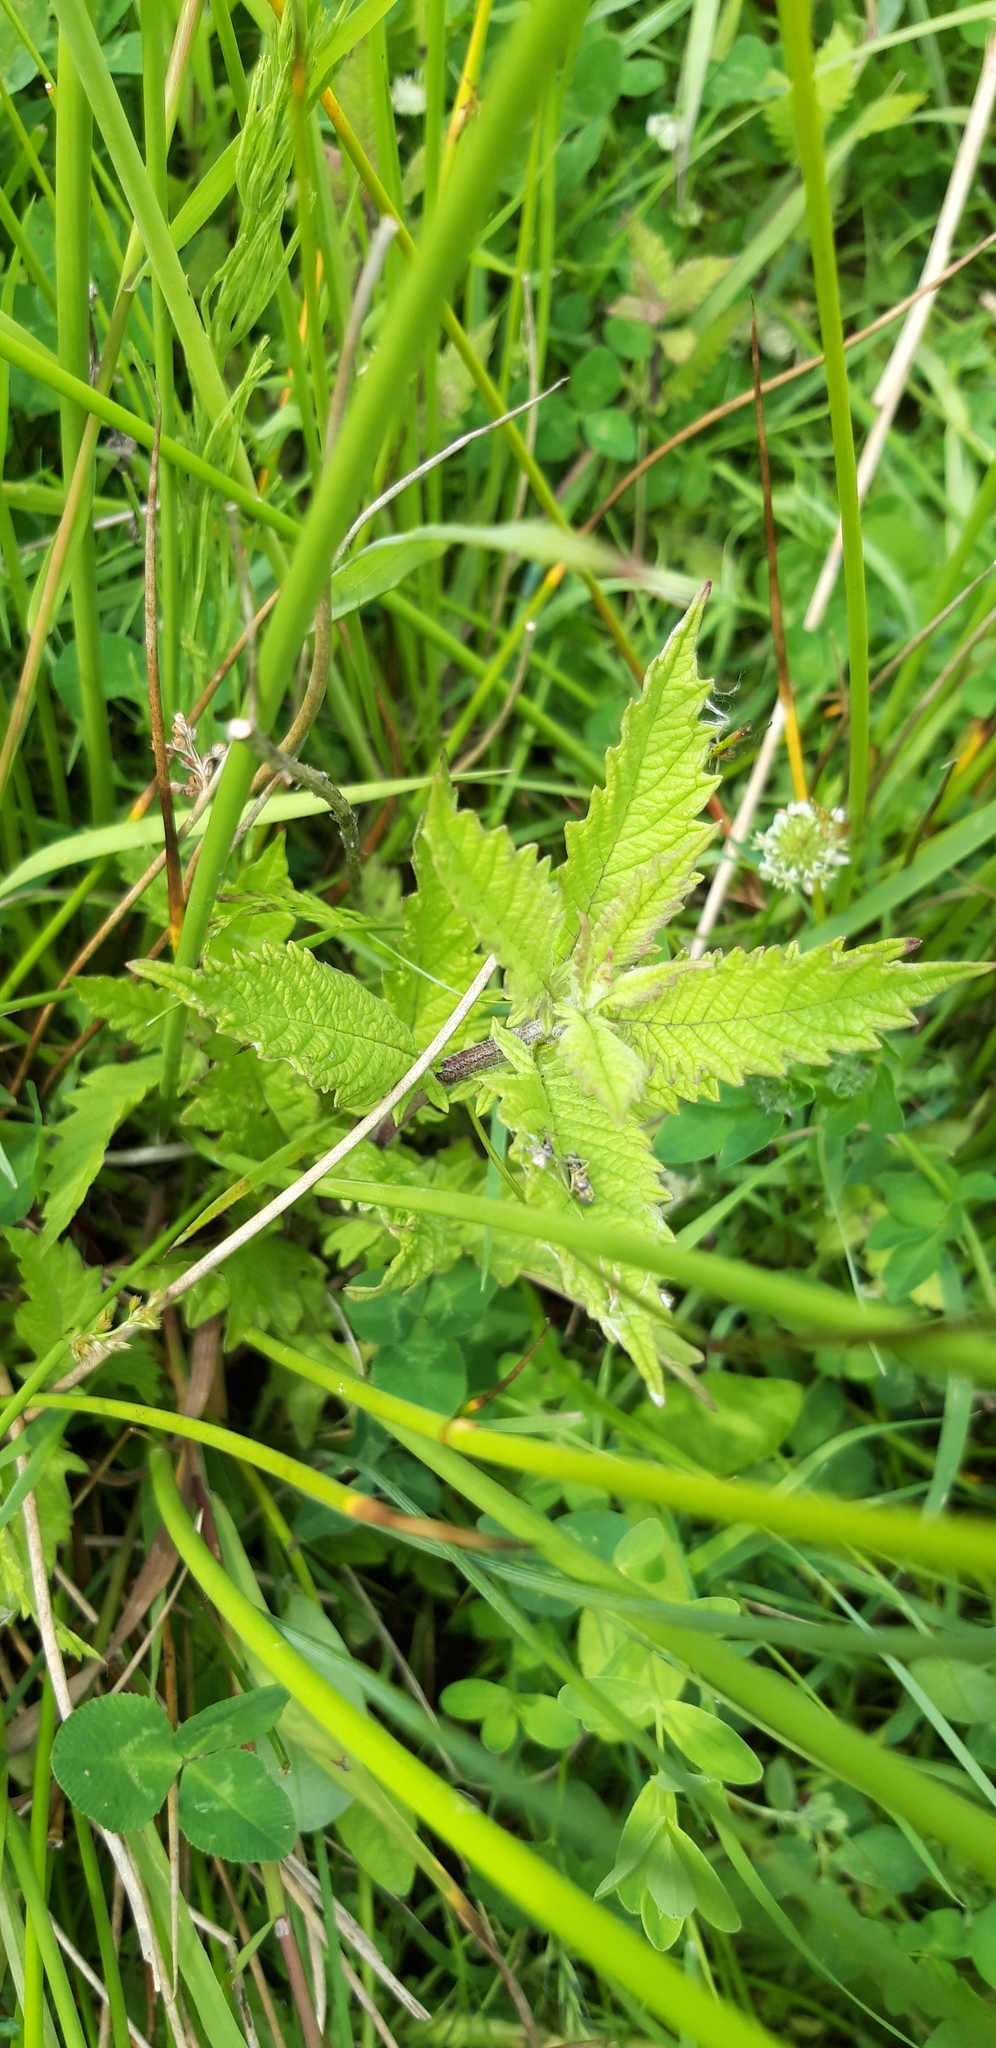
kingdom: Plantae
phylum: Tracheophyta
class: Magnoliopsida
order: Lamiales
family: Lamiaceae
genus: Lycopus
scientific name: Lycopus europaeus
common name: European bugleweed
